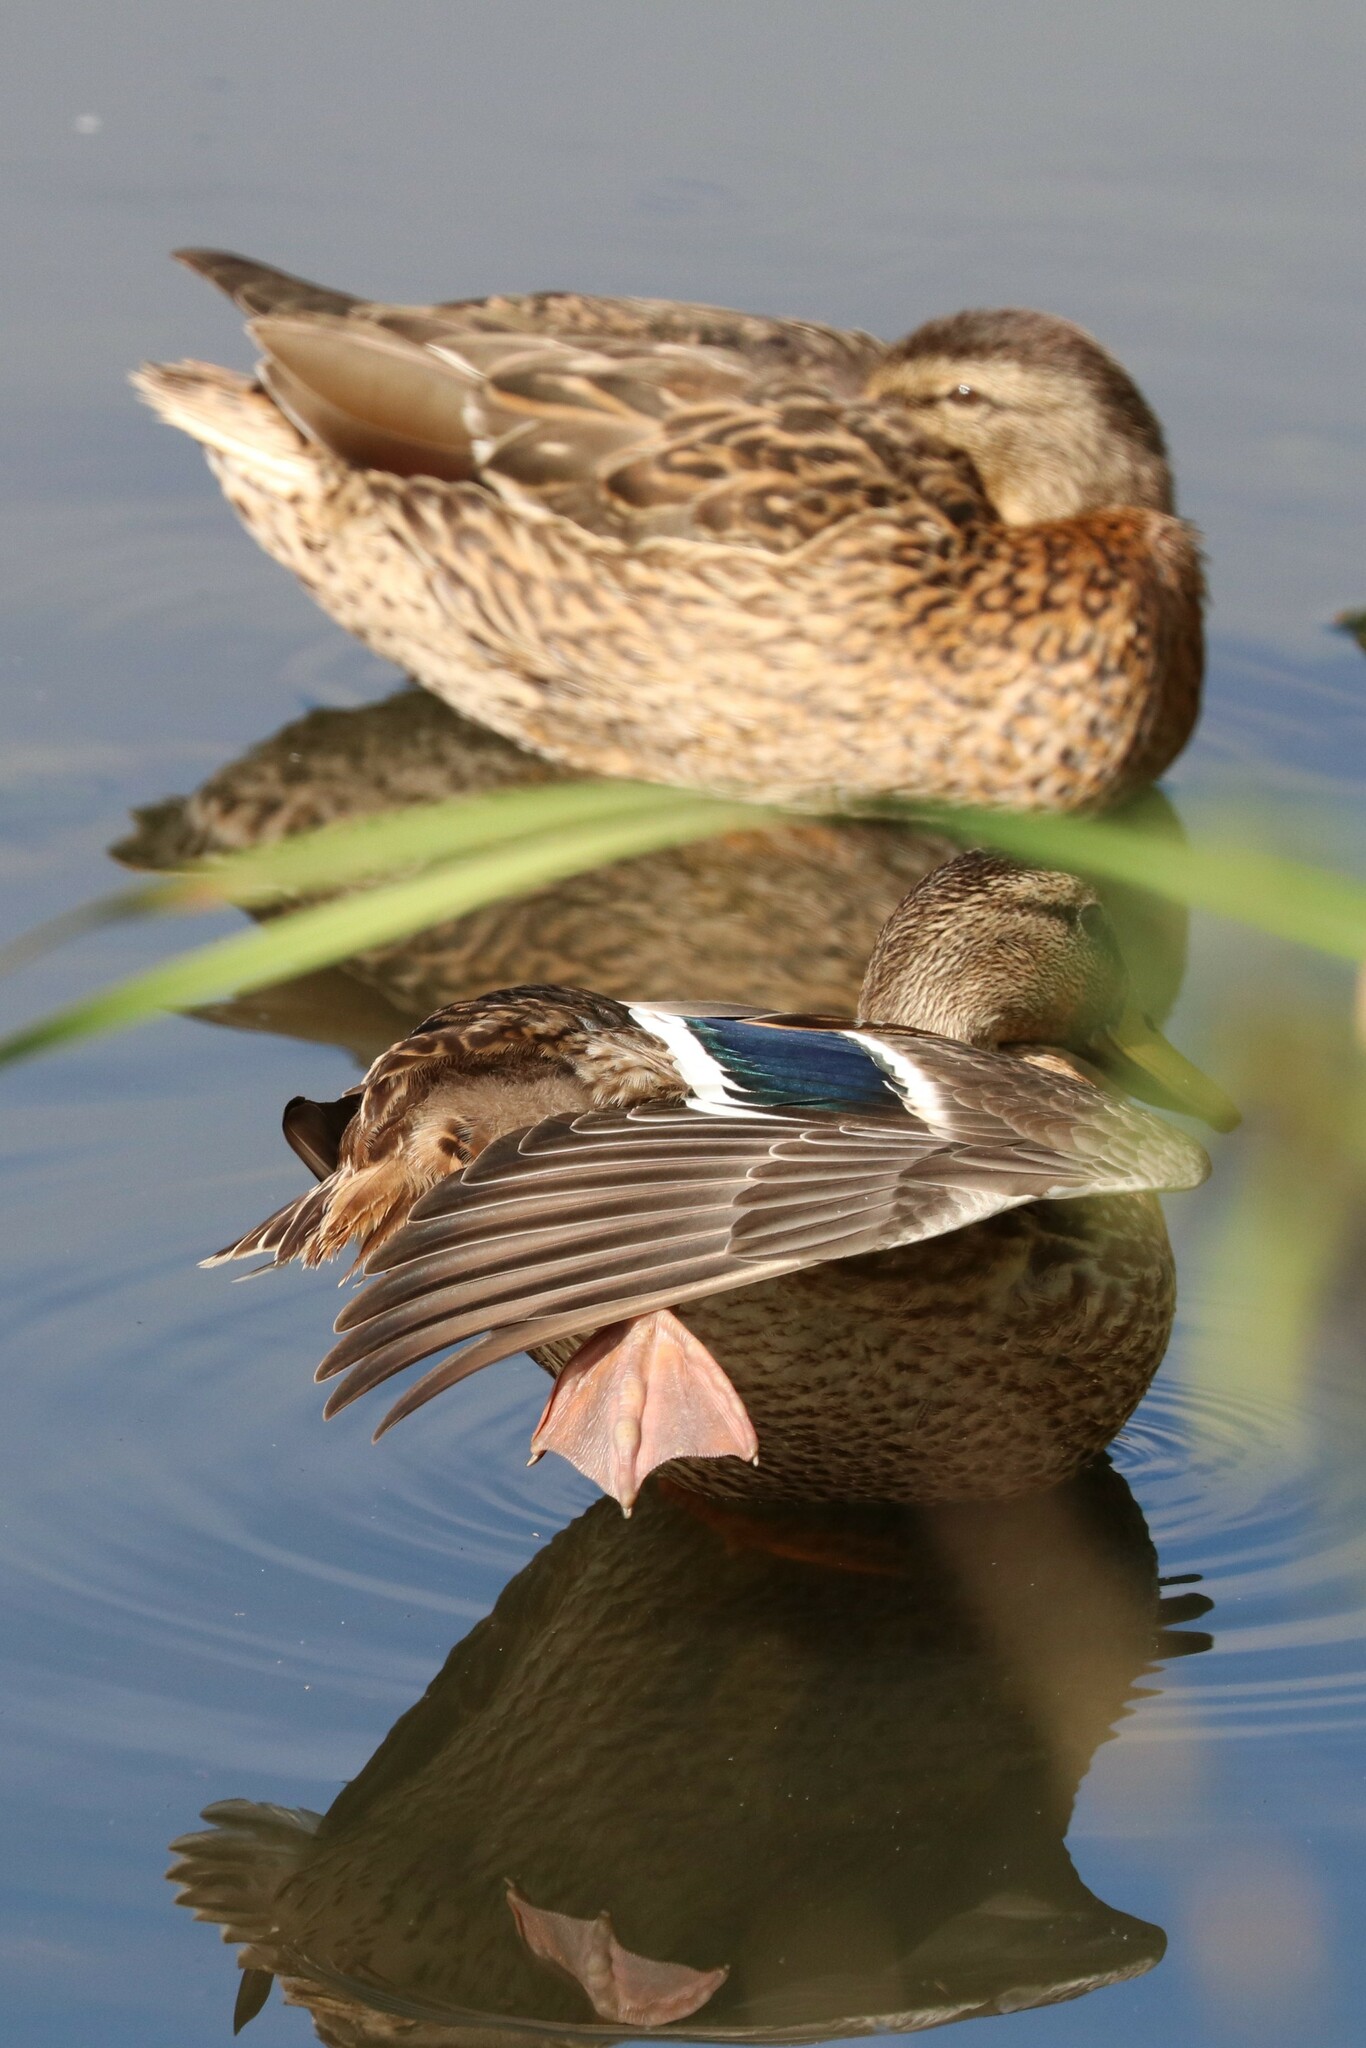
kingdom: Animalia
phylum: Chordata
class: Aves
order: Anseriformes
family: Anatidae
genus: Anas
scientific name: Anas platyrhynchos
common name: Mallard
